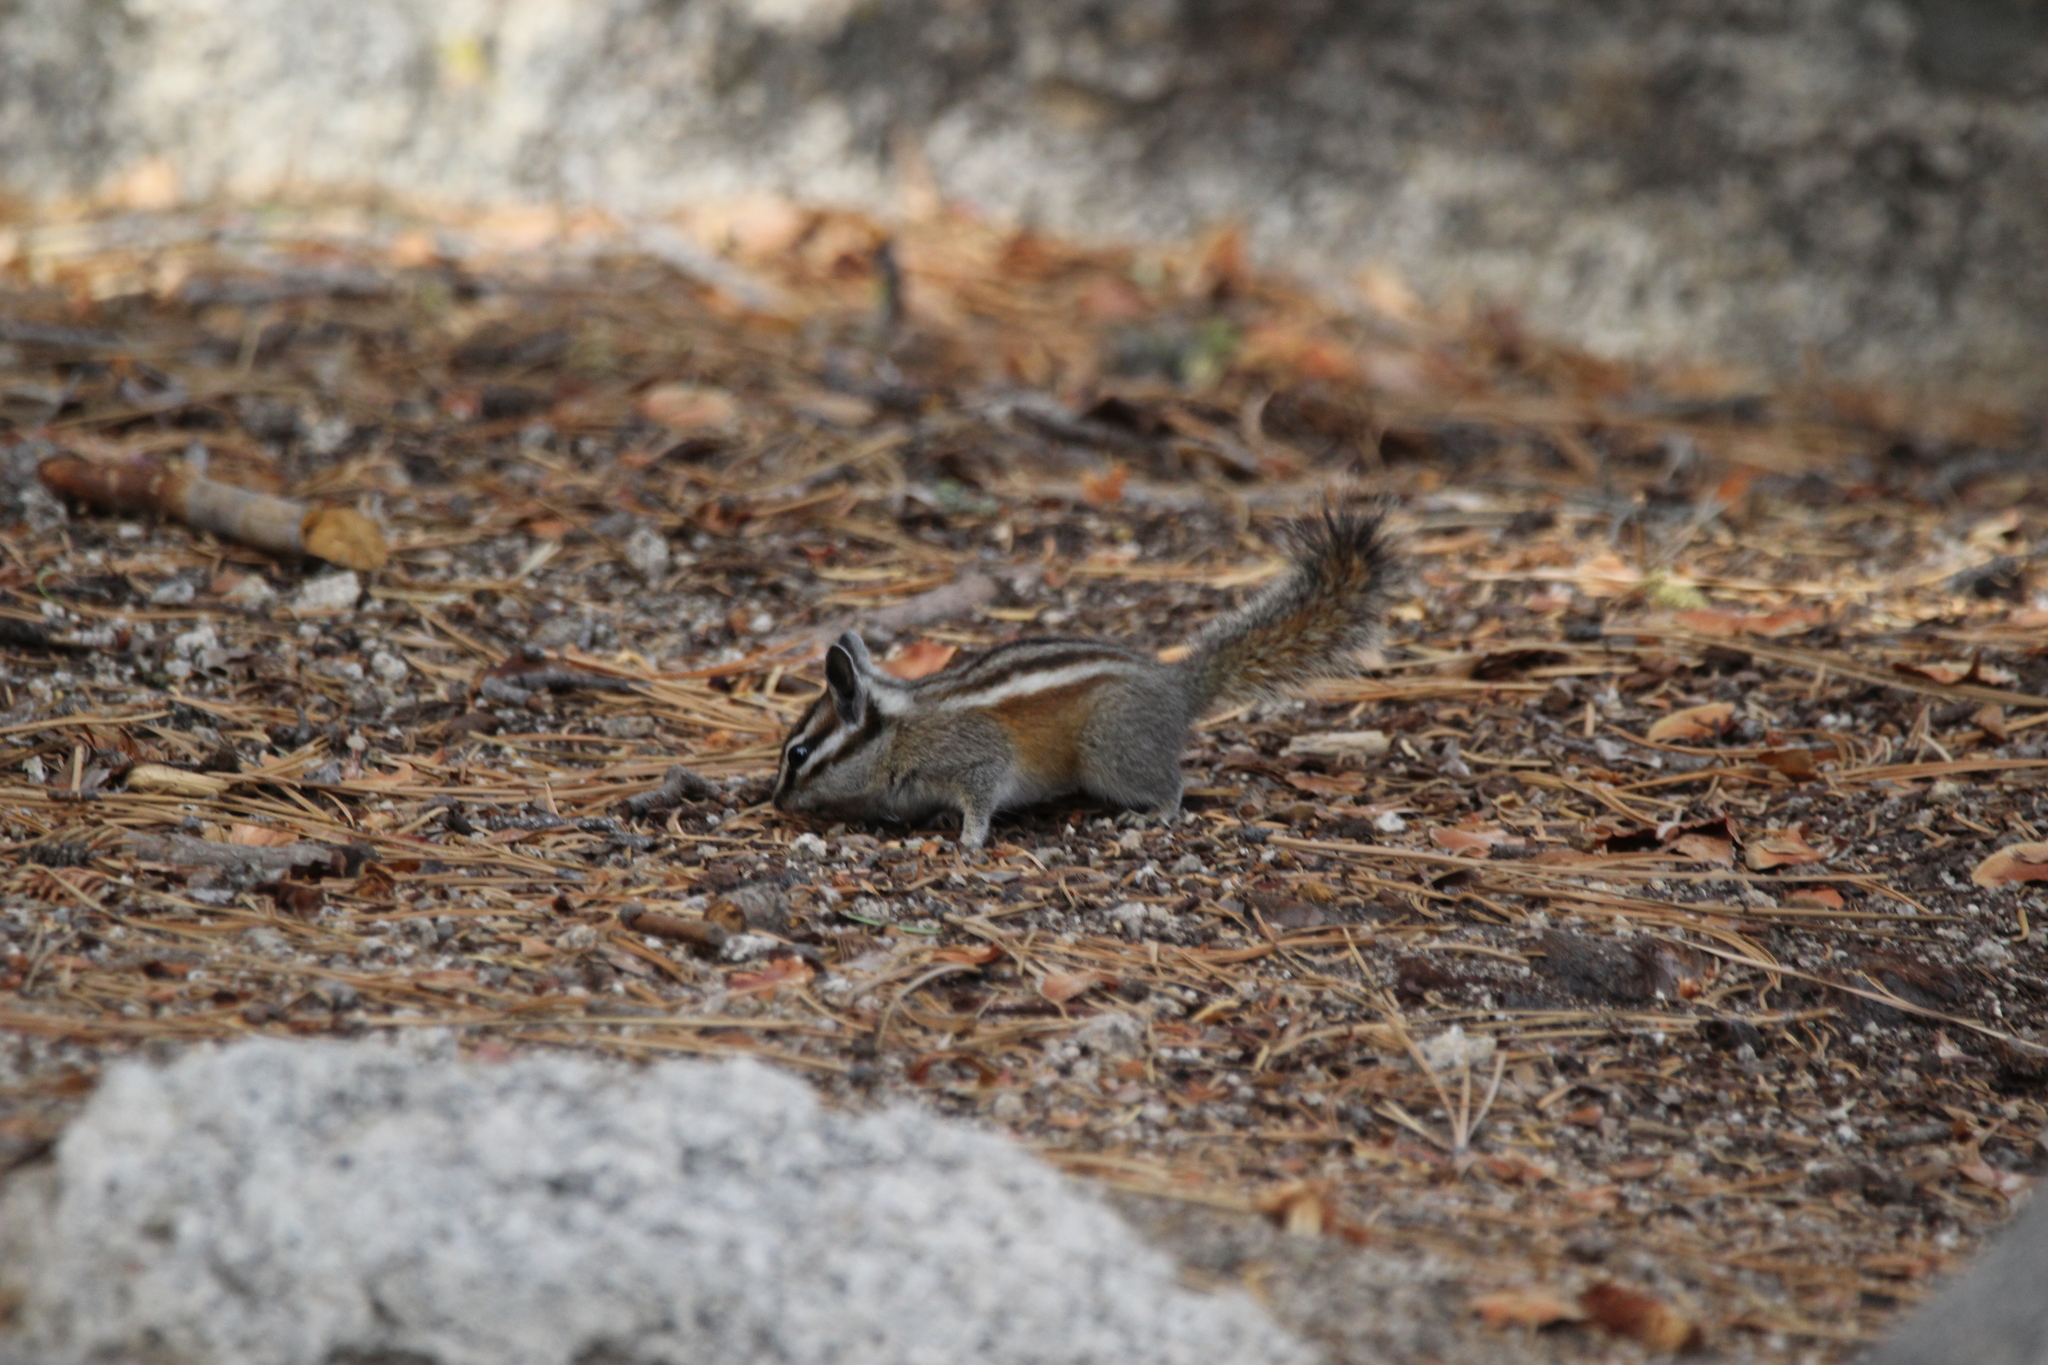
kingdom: Animalia
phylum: Chordata
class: Mammalia
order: Rodentia
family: Sciuridae
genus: Tamias
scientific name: Tamias speciosus
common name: Lodgepole chipmunk
